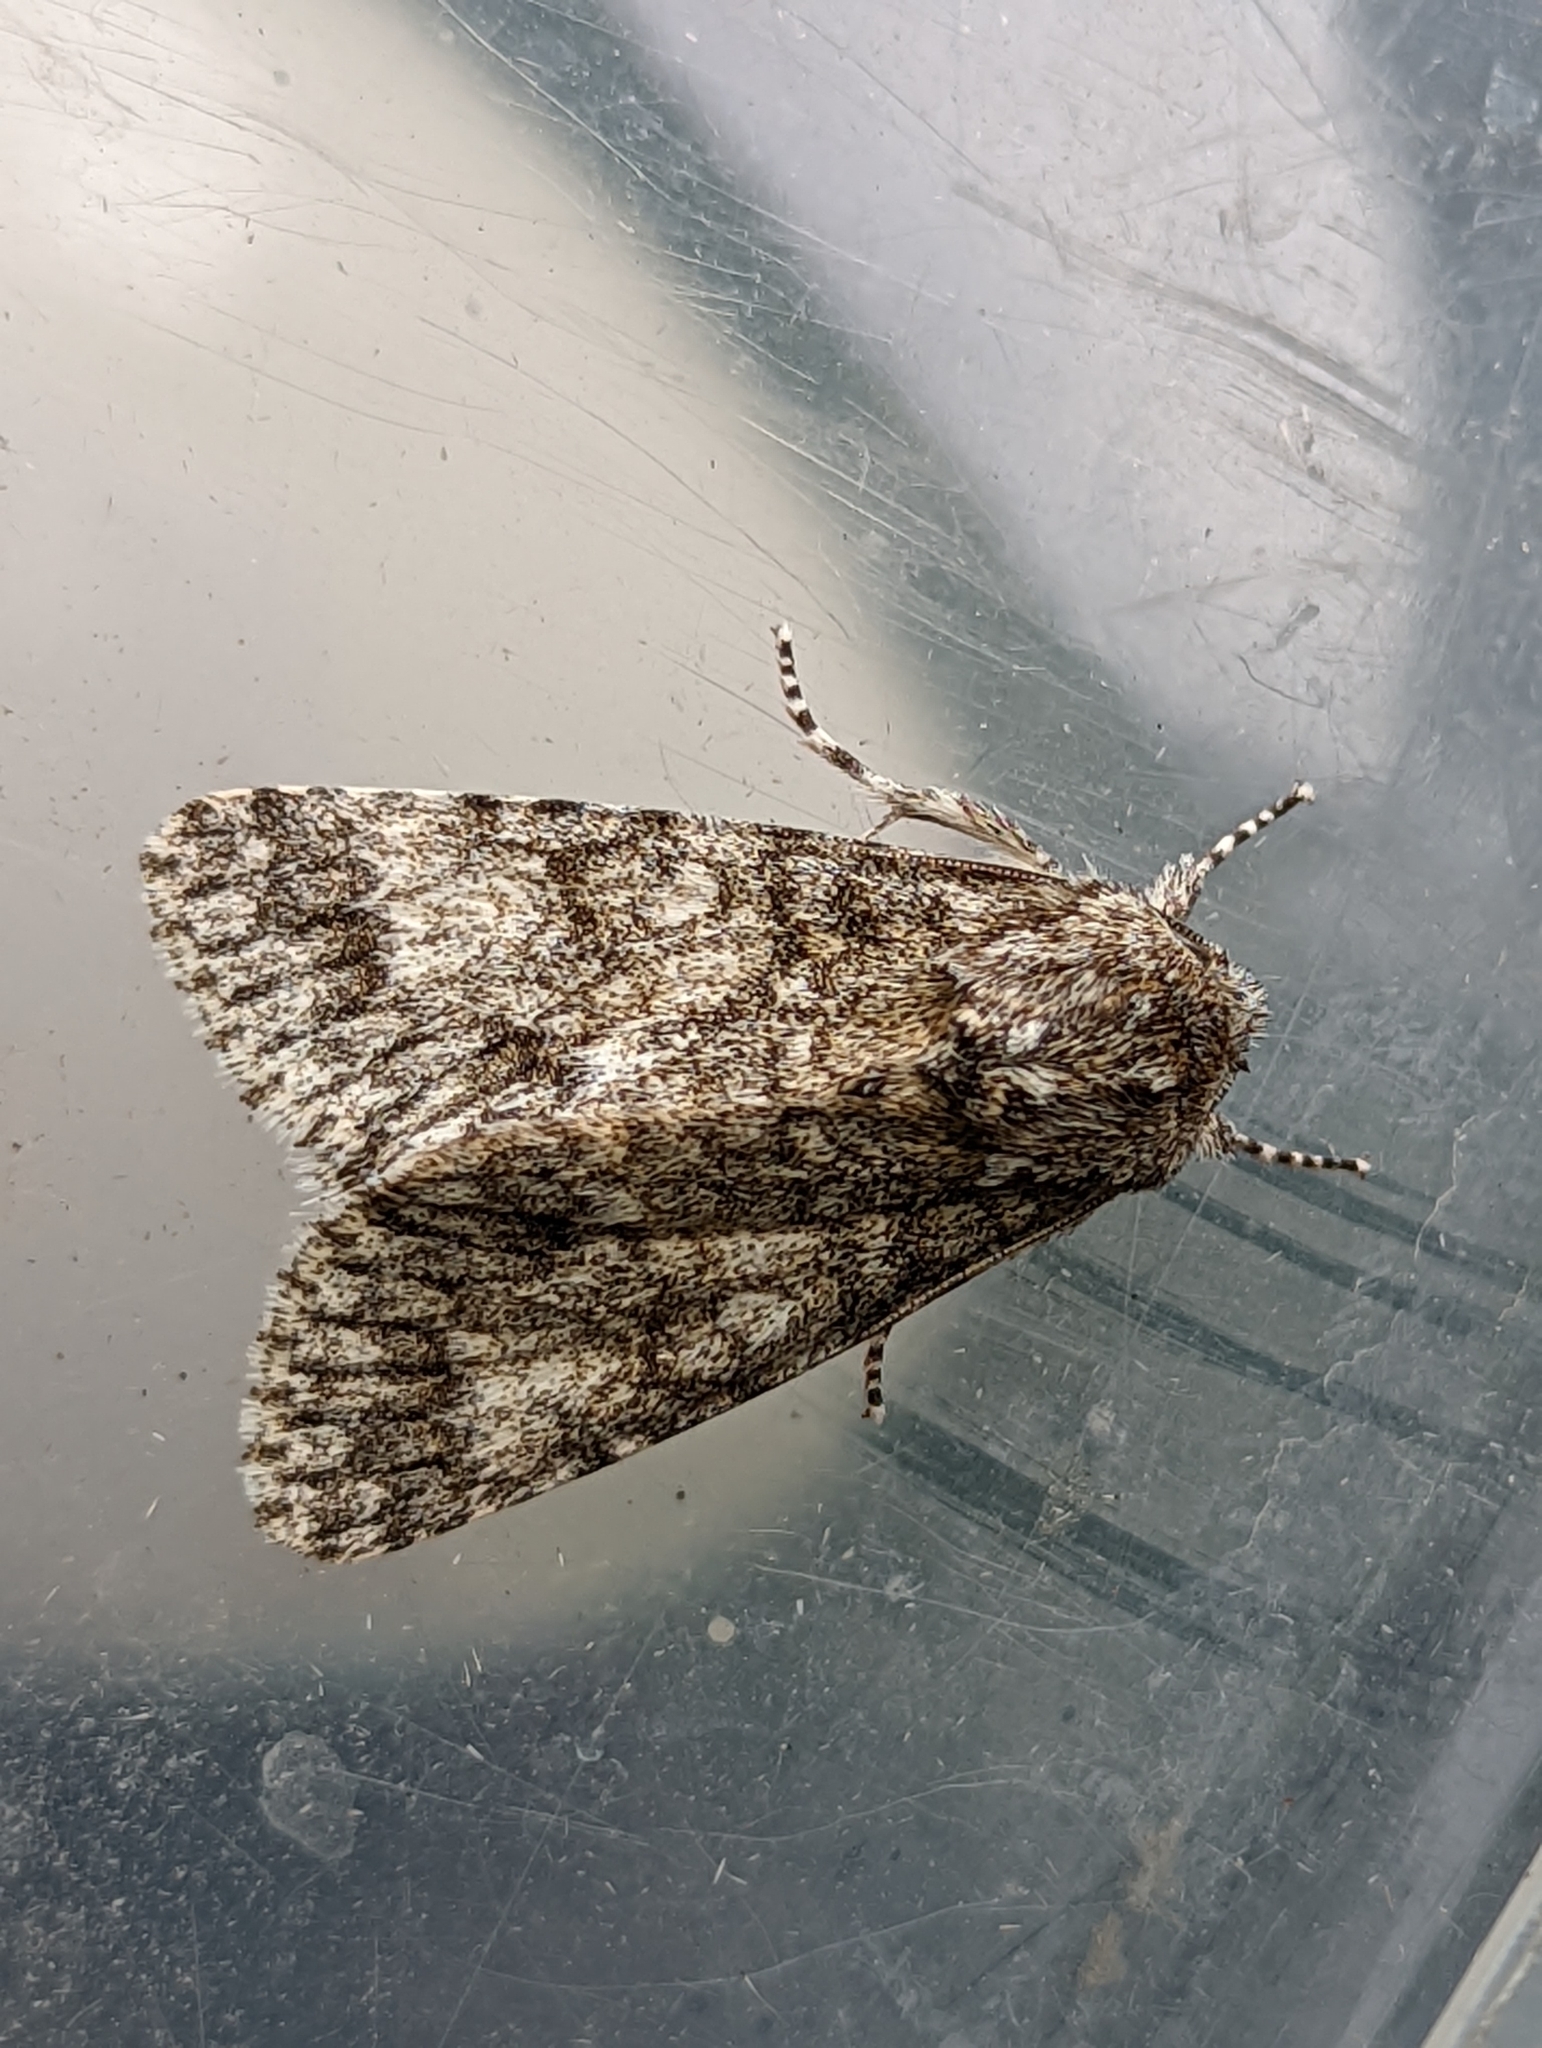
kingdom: Animalia
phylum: Arthropoda
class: Insecta
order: Lepidoptera
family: Noctuidae
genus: Acronicta
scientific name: Acronicta megacephala
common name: Poplar grey
